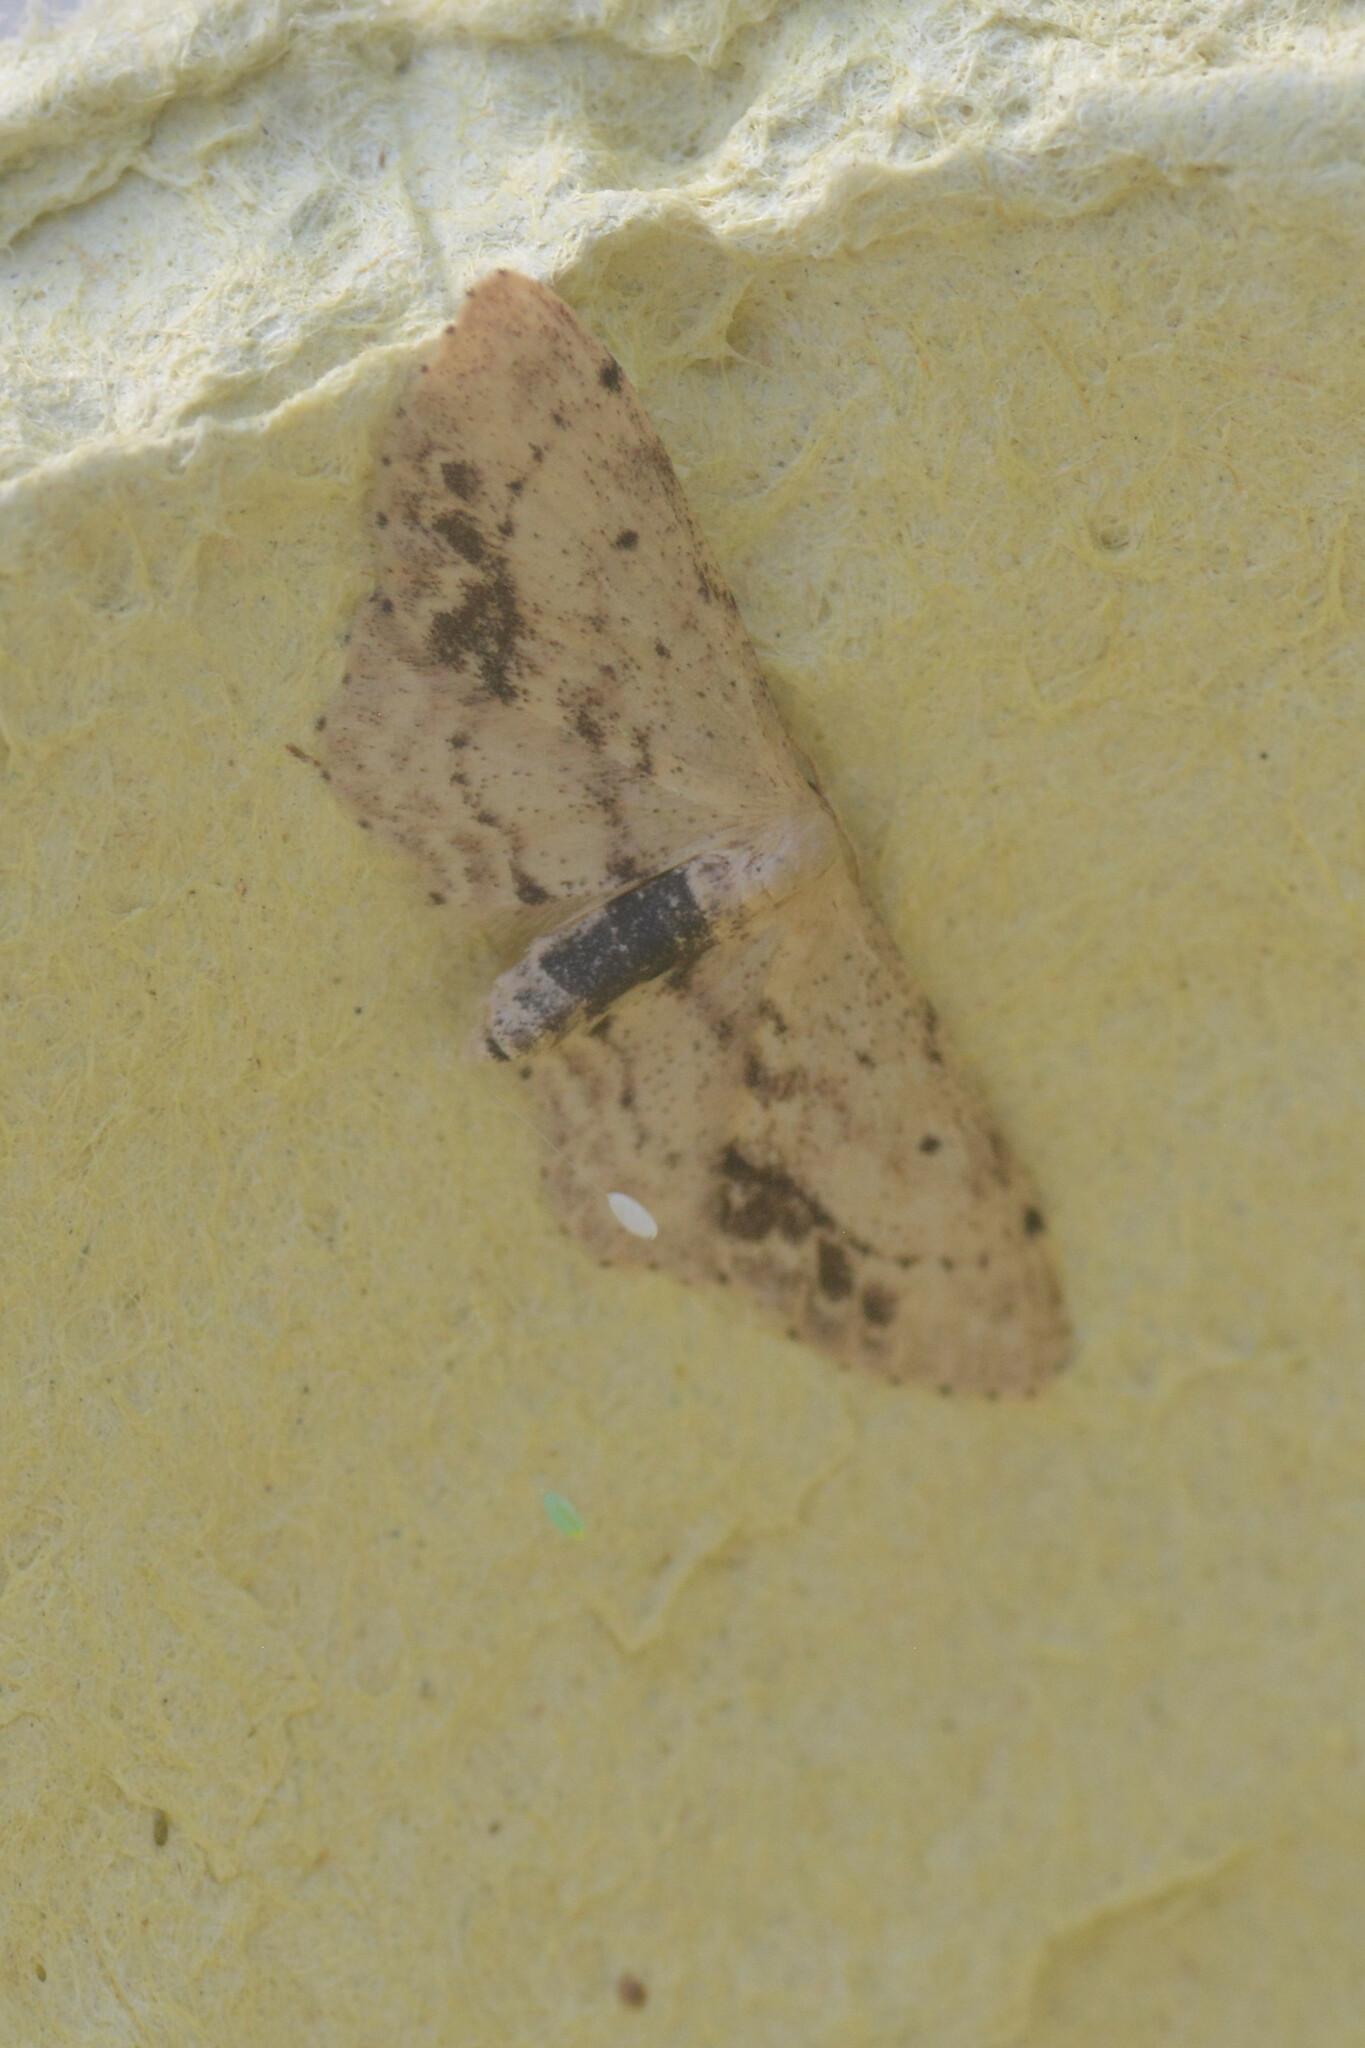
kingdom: Animalia
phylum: Arthropoda
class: Insecta
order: Lepidoptera
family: Geometridae
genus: Idaea
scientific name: Idaea dimidiata
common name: Single-dotted wave
